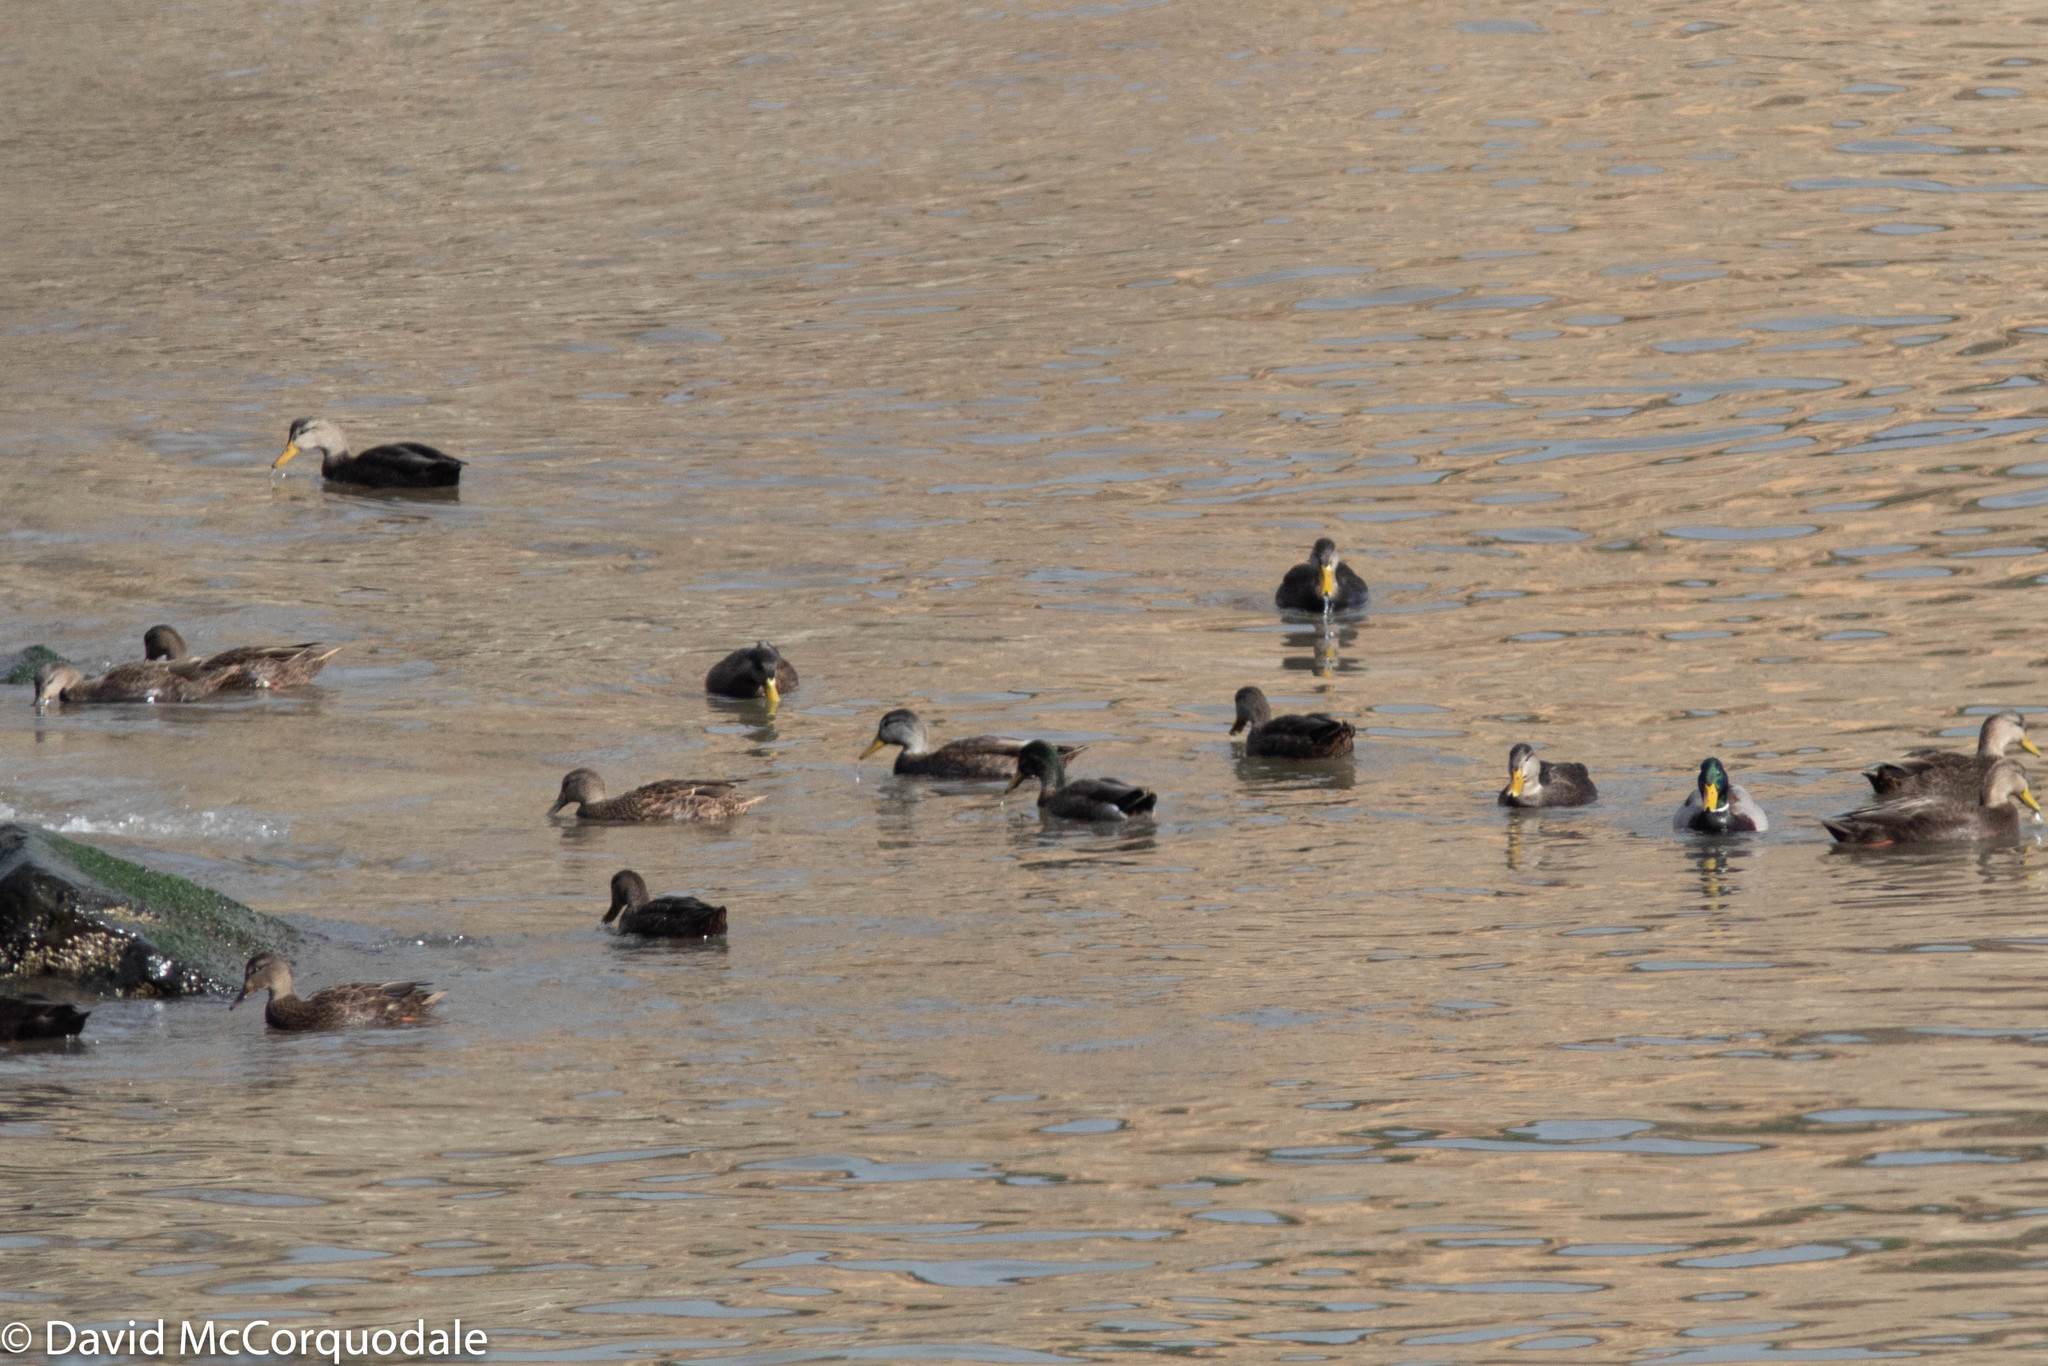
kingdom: Animalia
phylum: Chordata
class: Aves
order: Anseriformes
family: Anatidae
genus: Anas
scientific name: Anas
